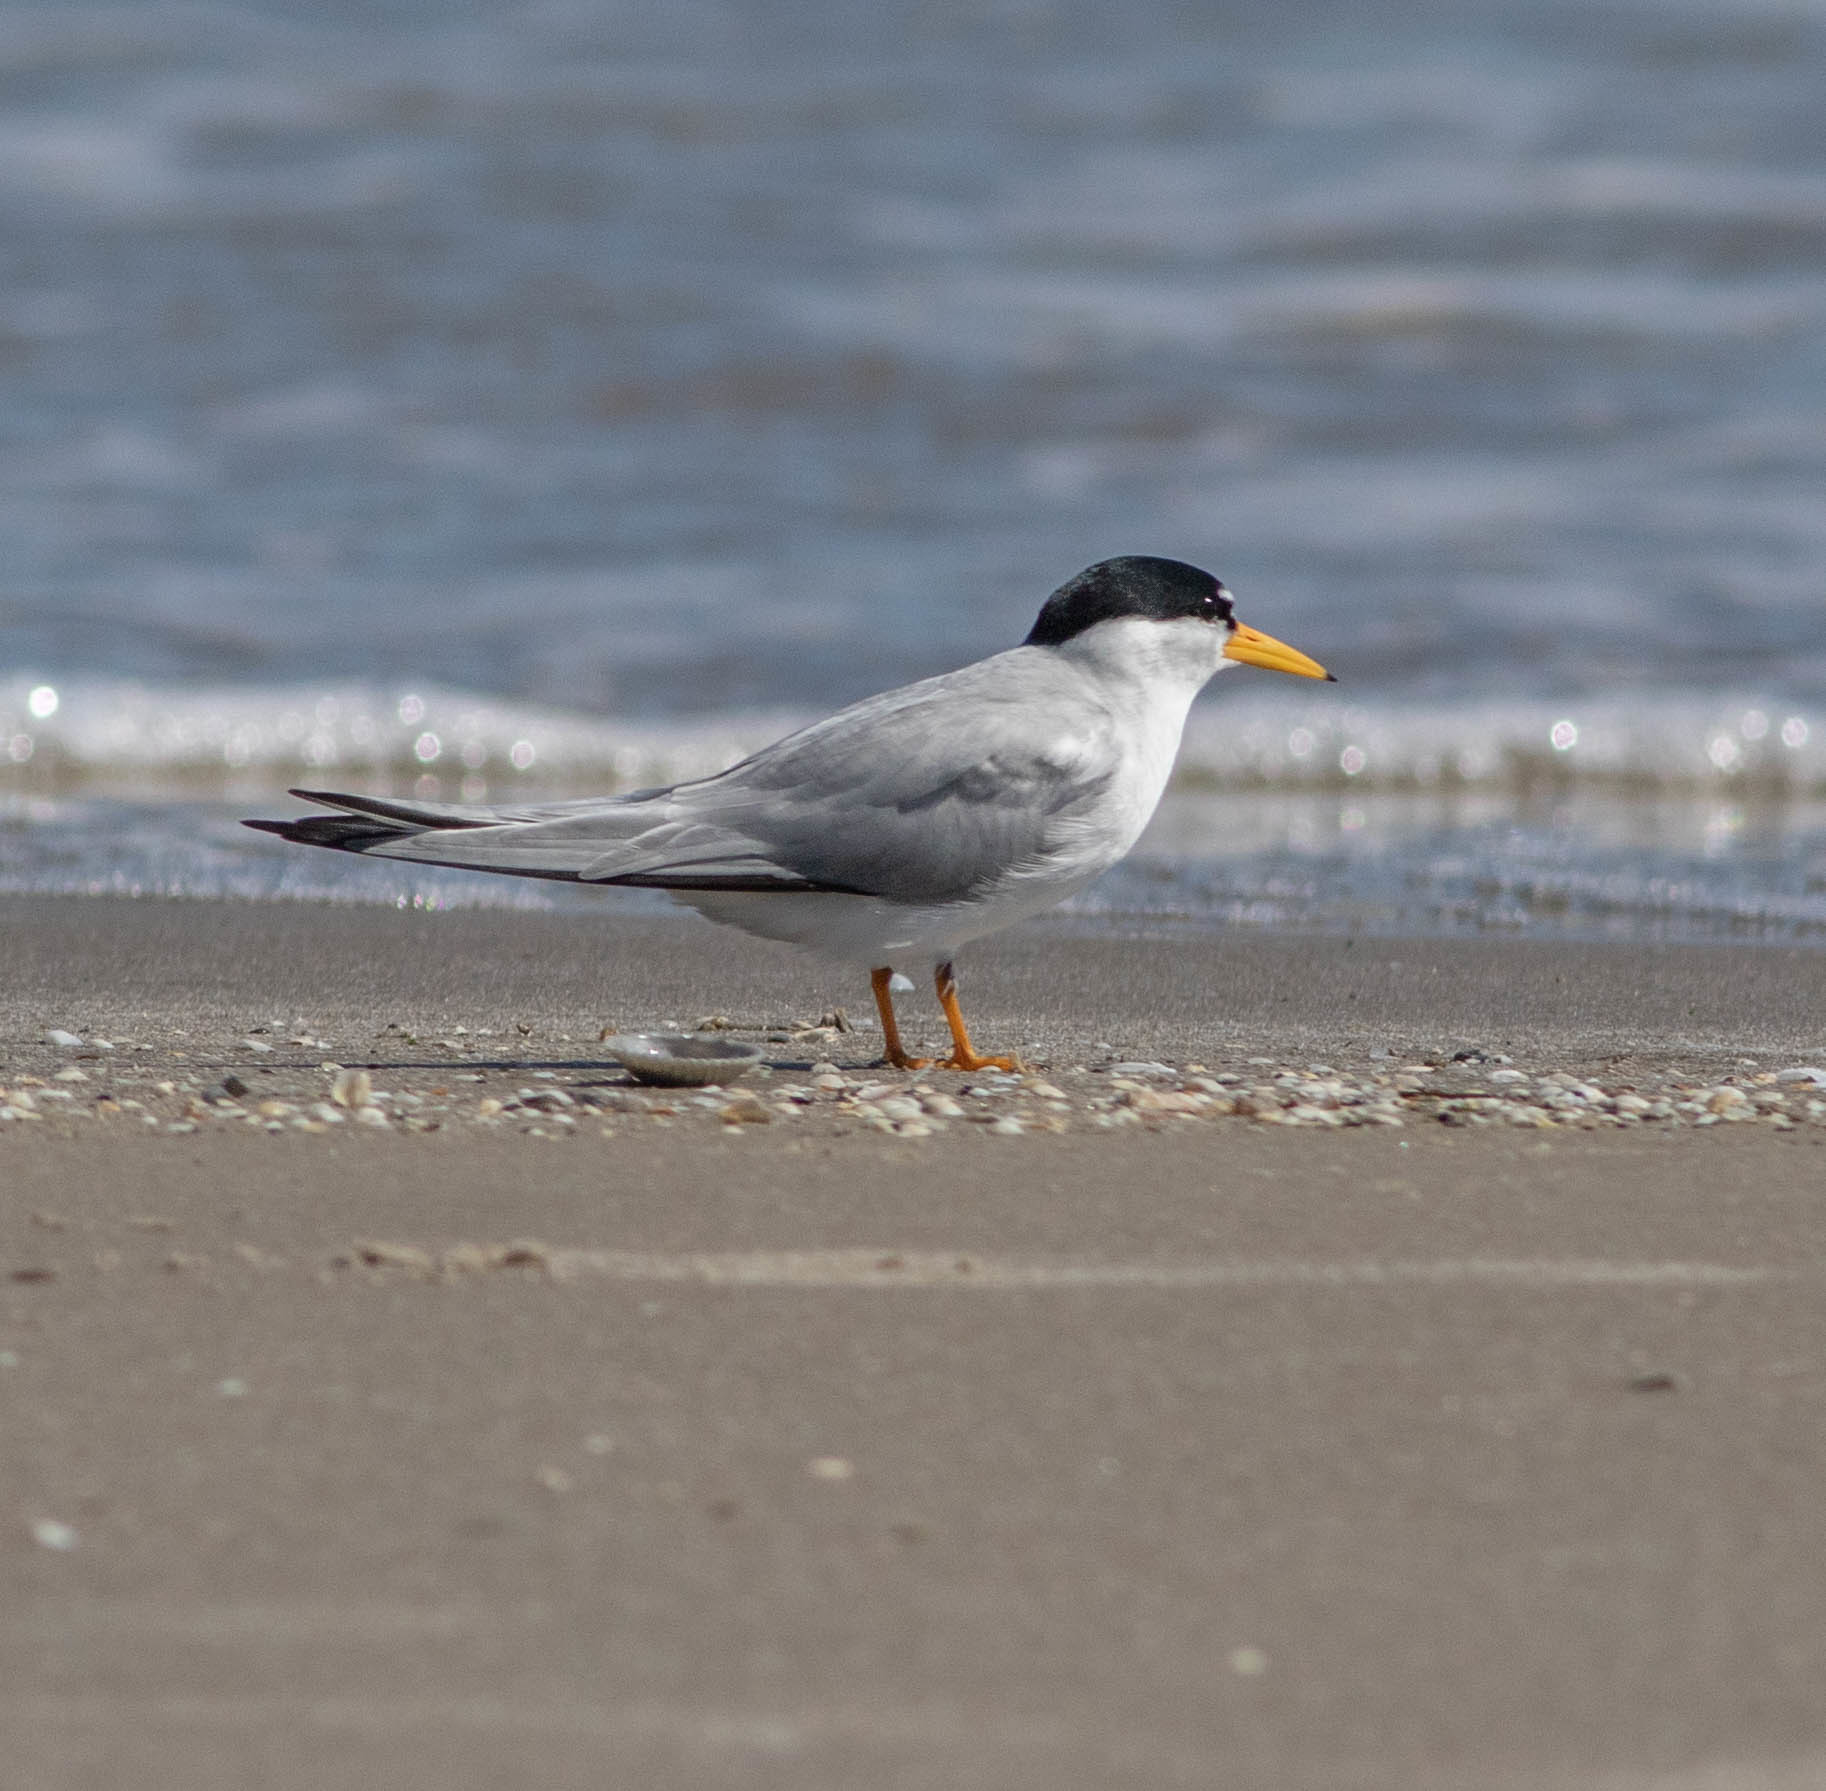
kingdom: Animalia
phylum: Chordata
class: Aves
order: Charadriiformes
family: Laridae
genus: Sternula
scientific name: Sternula antillarum
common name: Least tern
